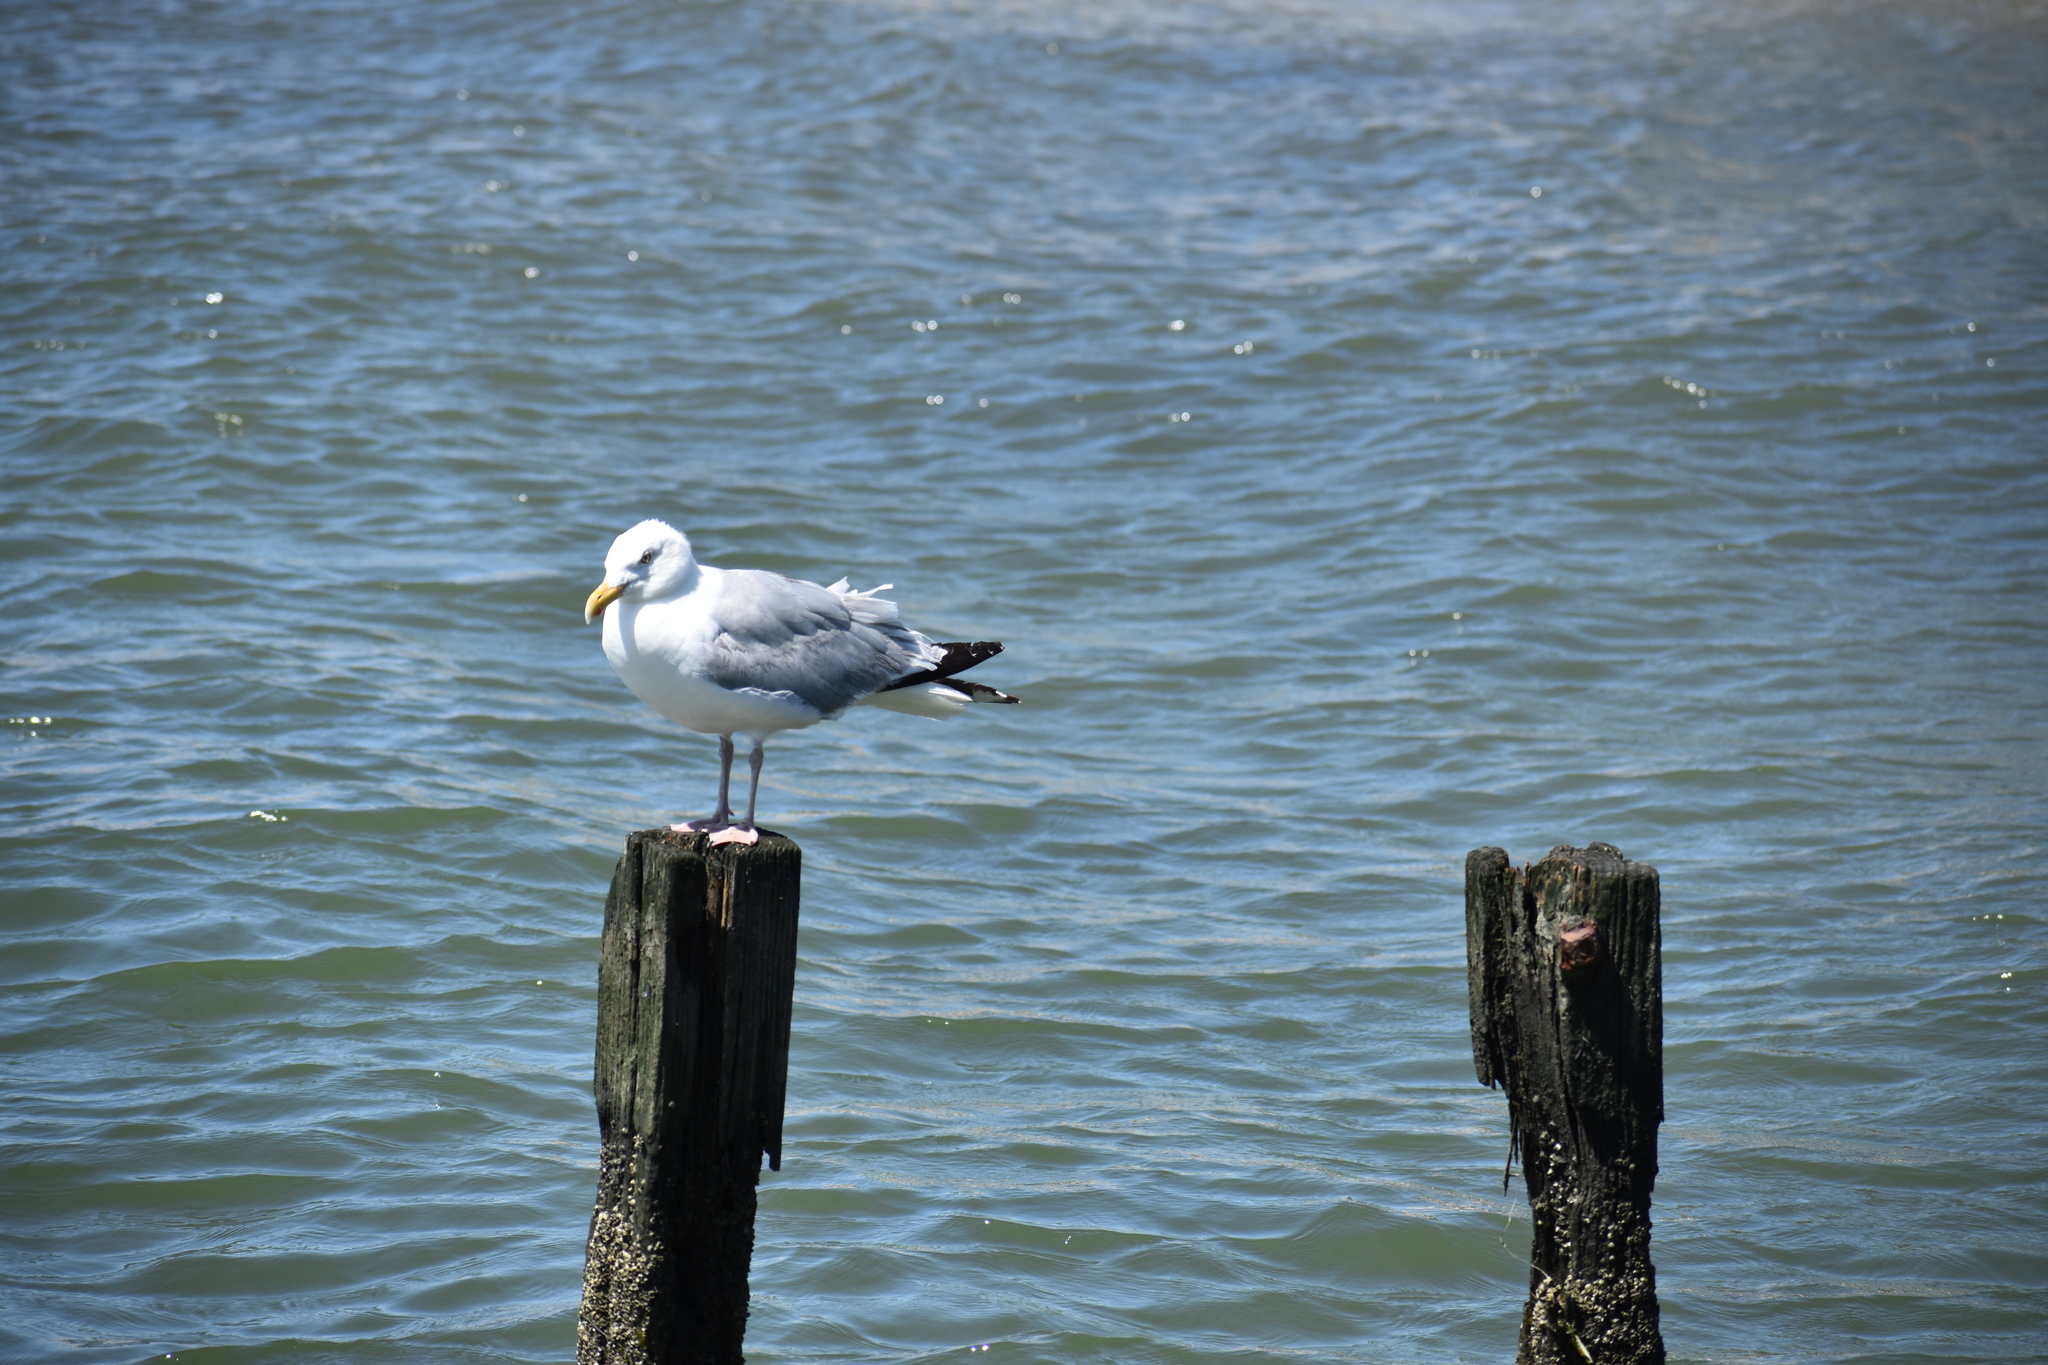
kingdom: Animalia
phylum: Chordata
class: Aves
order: Charadriiformes
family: Laridae
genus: Larus
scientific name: Larus argentatus
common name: Herring gull
